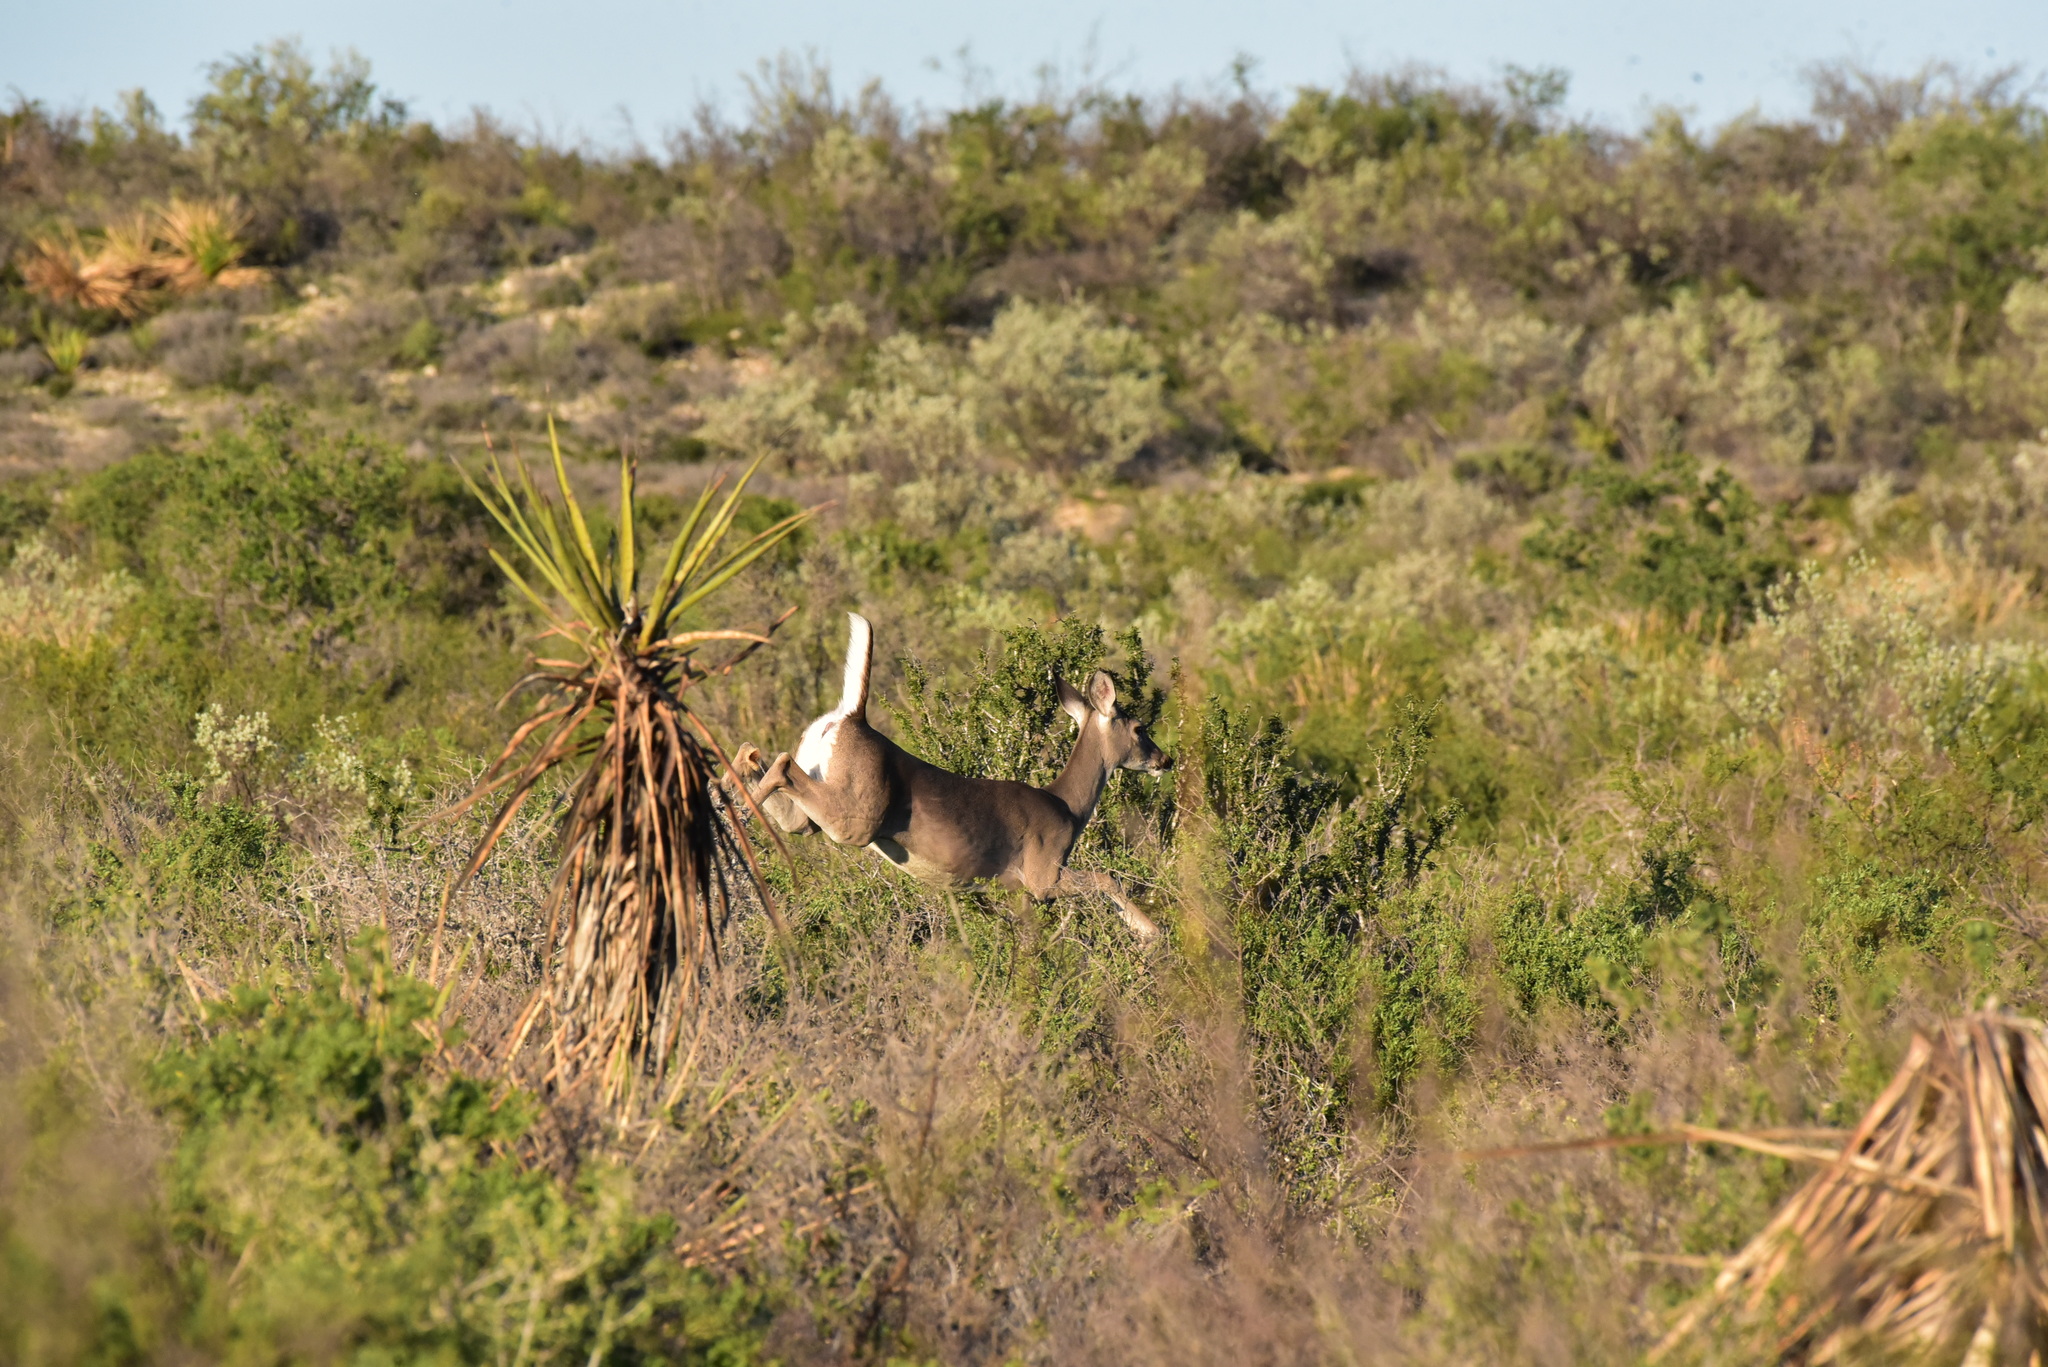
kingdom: Animalia
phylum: Chordata
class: Mammalia
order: Artiodactyla
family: Cervidae
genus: Odocoileus
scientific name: Odocoileus virginianus
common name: White-tailed deer
